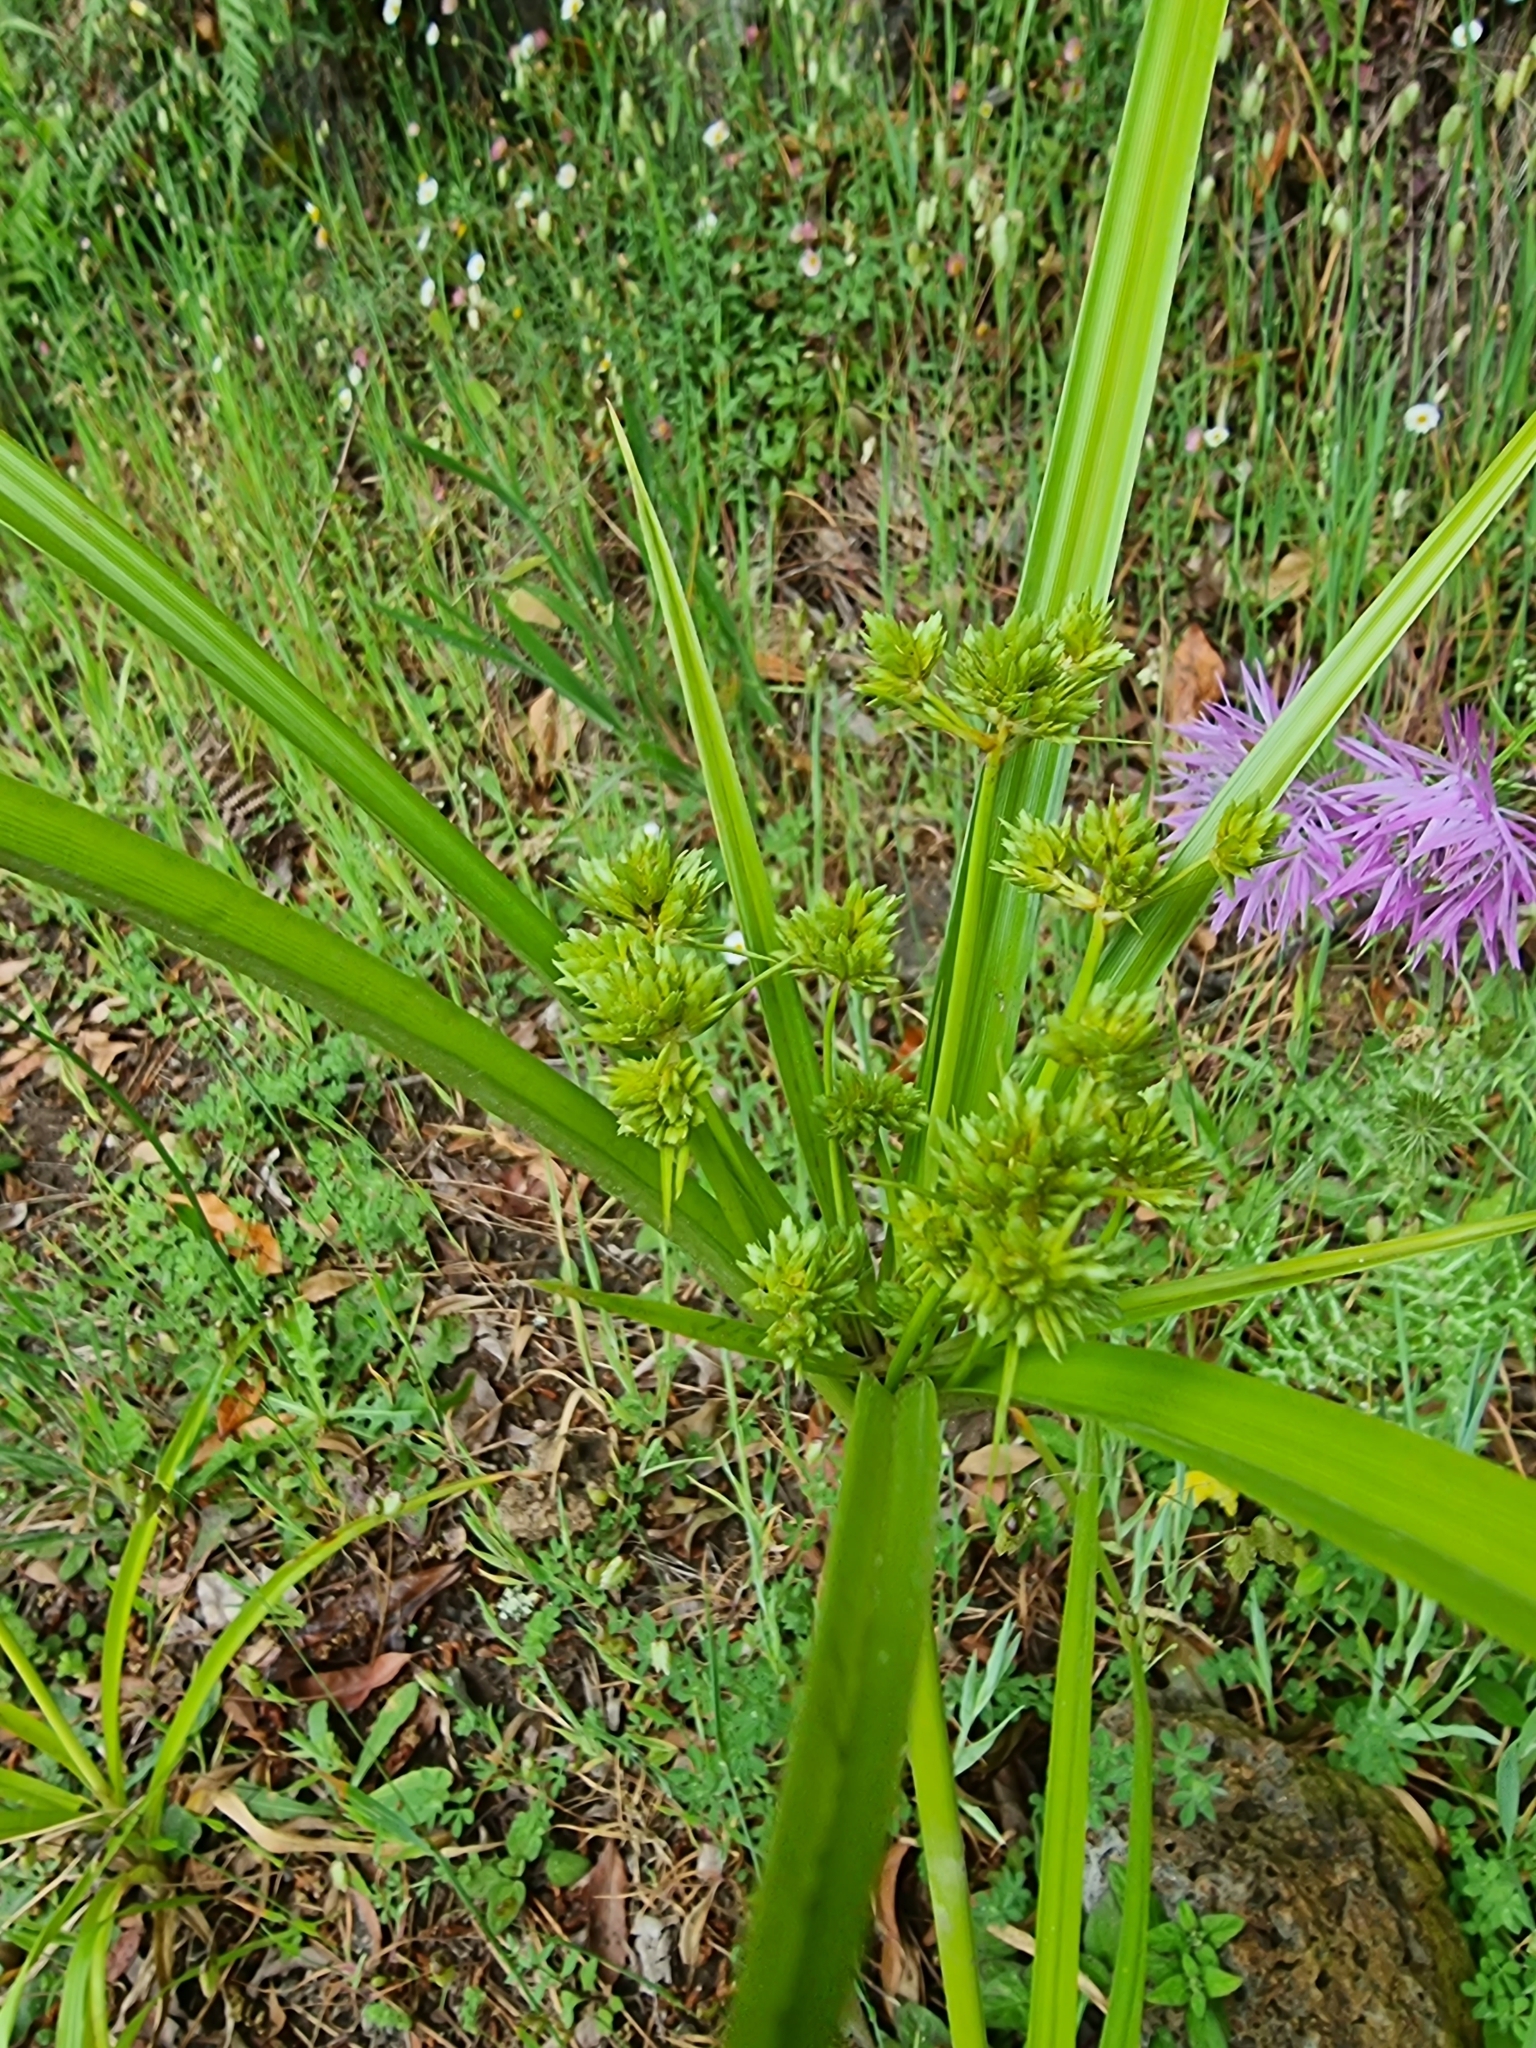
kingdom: Plantae
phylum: Tracheophyta
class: Liliopsida
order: Poales
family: Cyperaceae
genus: Cyperus
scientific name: Cyperus eragrostis
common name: Tall flatsedge
